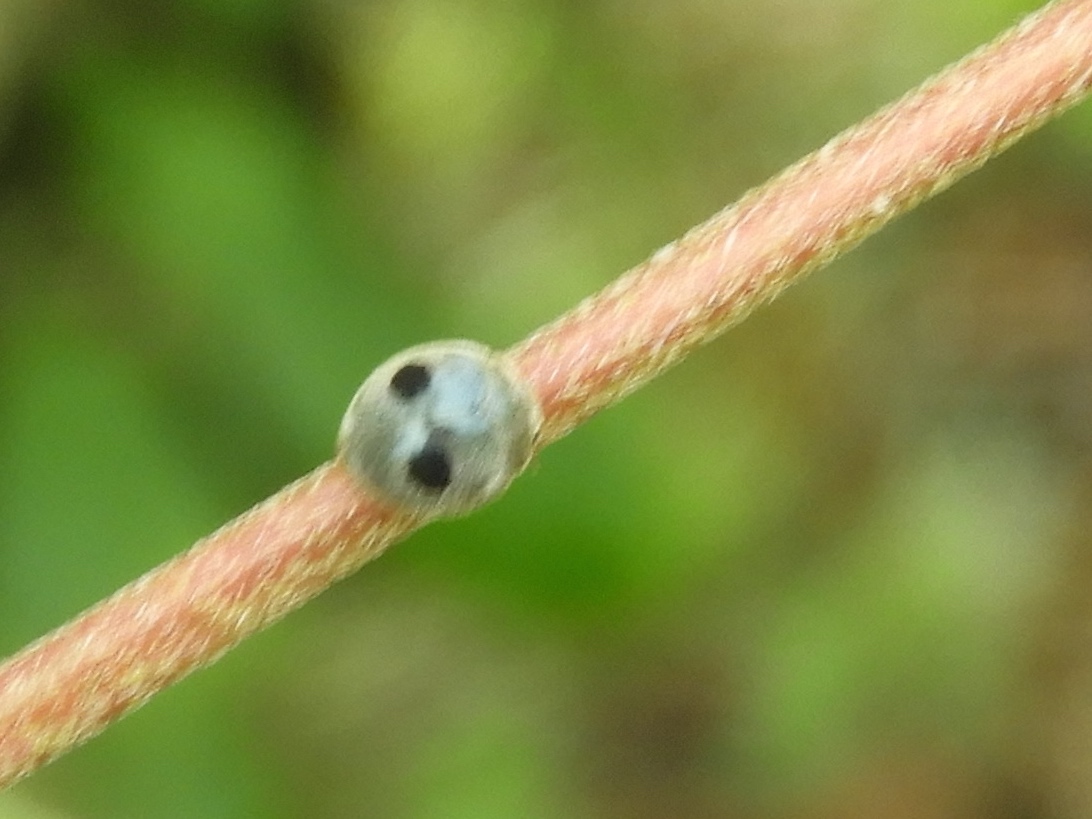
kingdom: Animalia
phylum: Arthropoda
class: Insecta
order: Coleoptera
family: Coccinellidae
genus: Azya
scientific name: Azya orbigera
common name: Ladybird beetle
